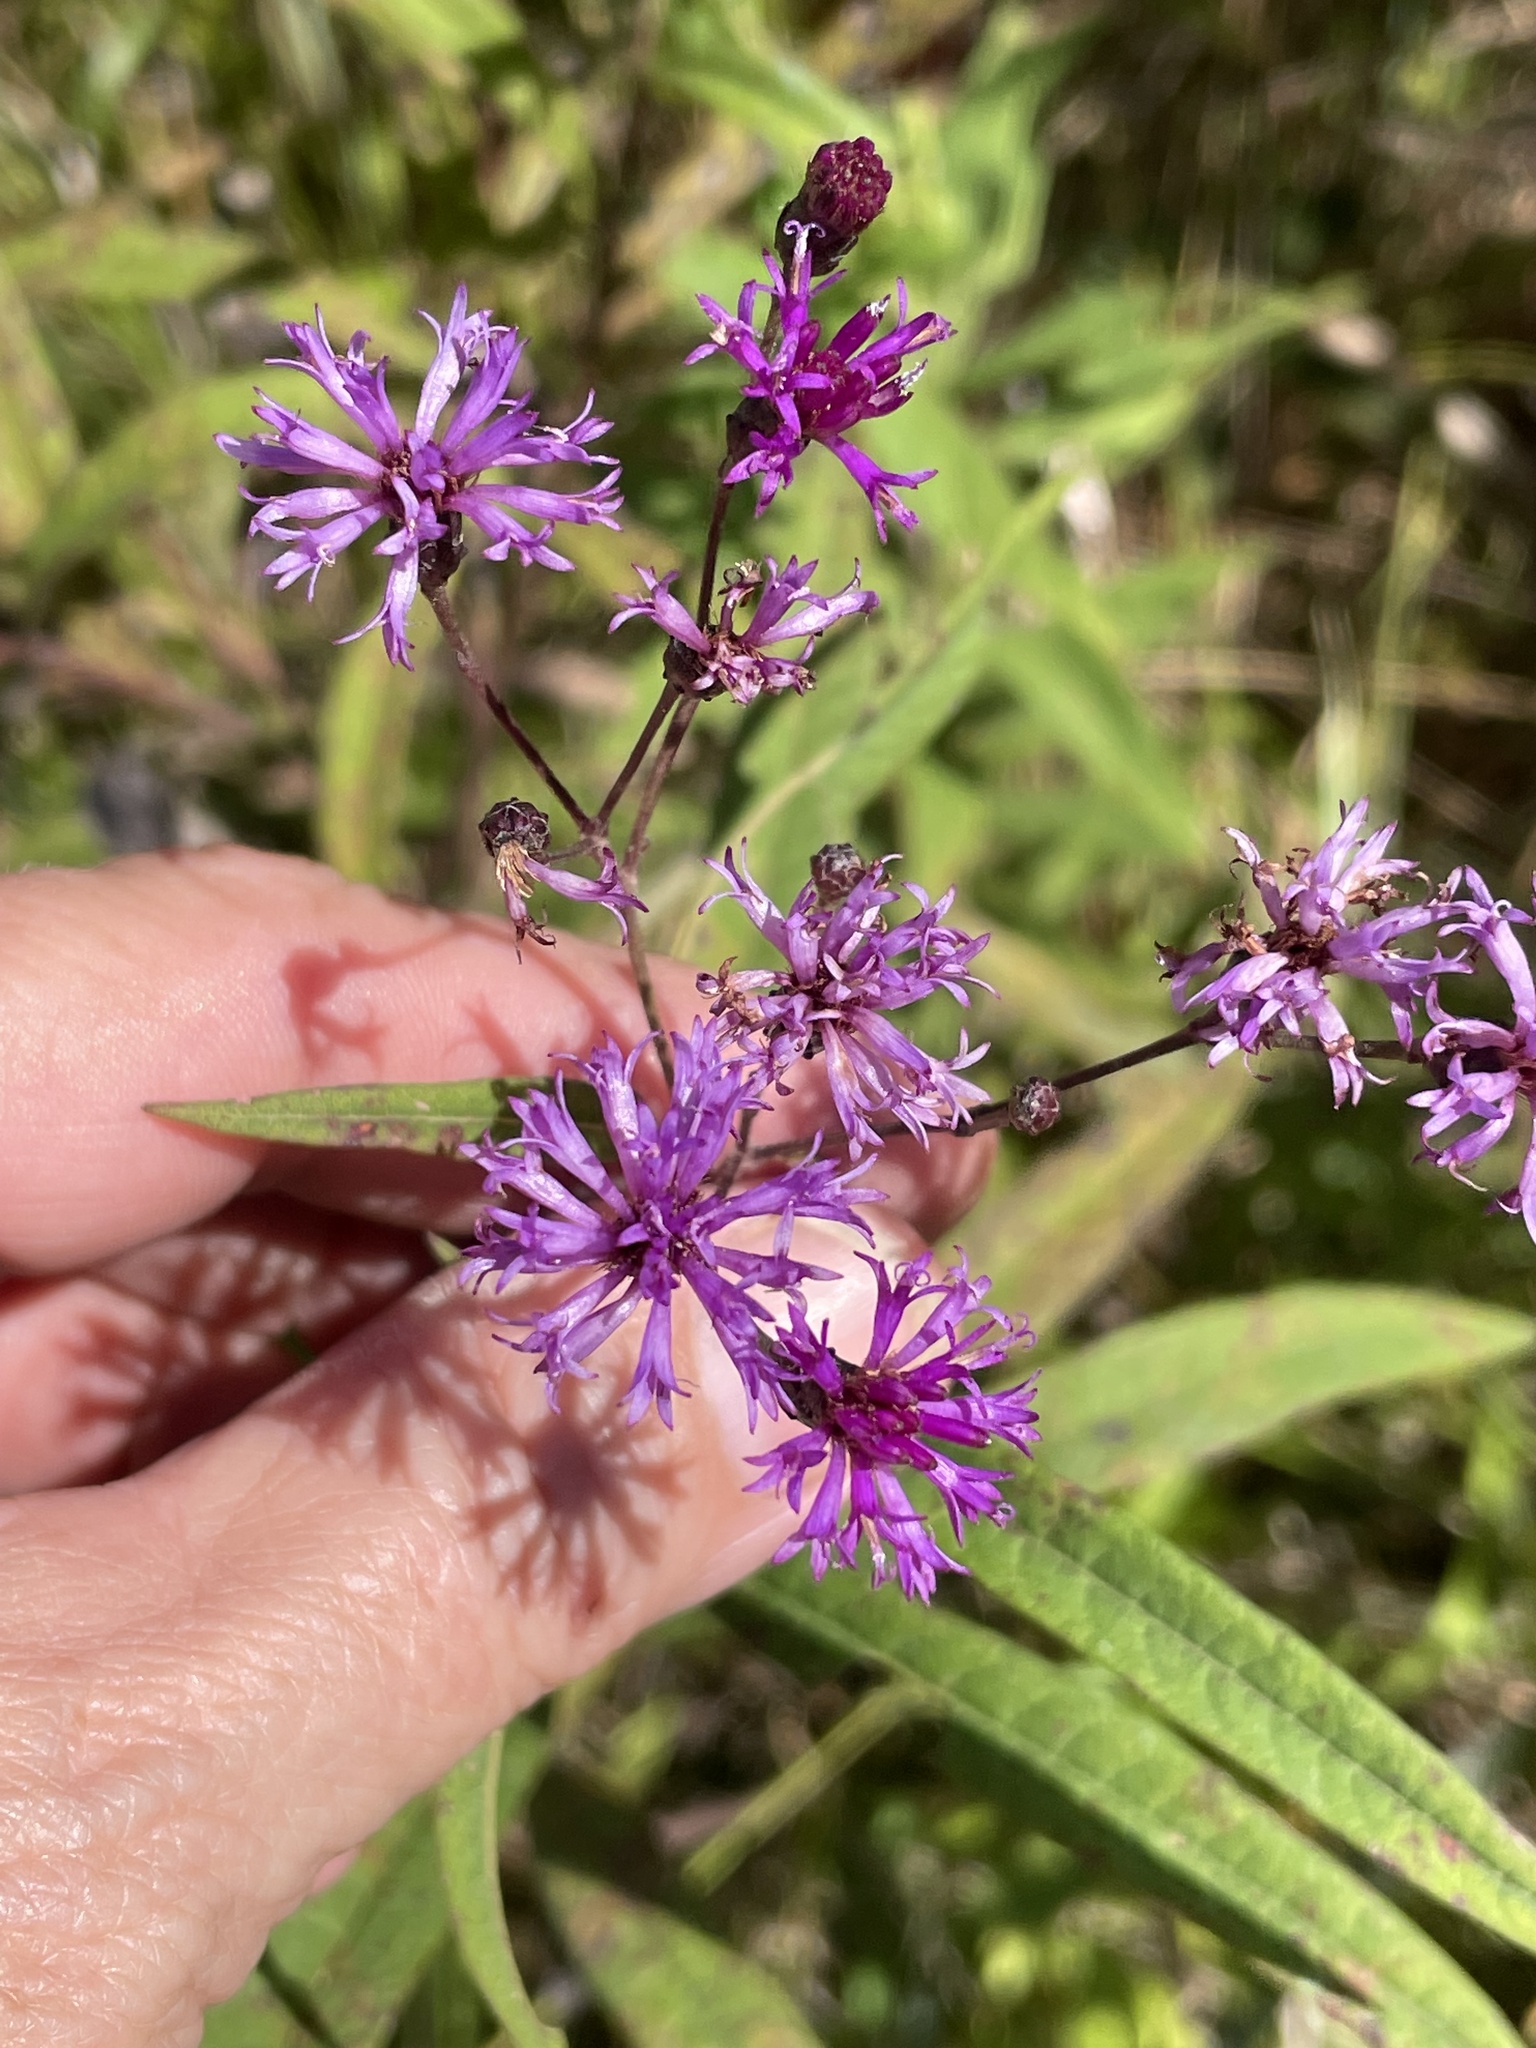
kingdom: Plantae
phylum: Tracheophyta
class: Magnoliopsida
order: Asterales
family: Asteraceae
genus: Vernonia
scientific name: Vernonia gigantea
